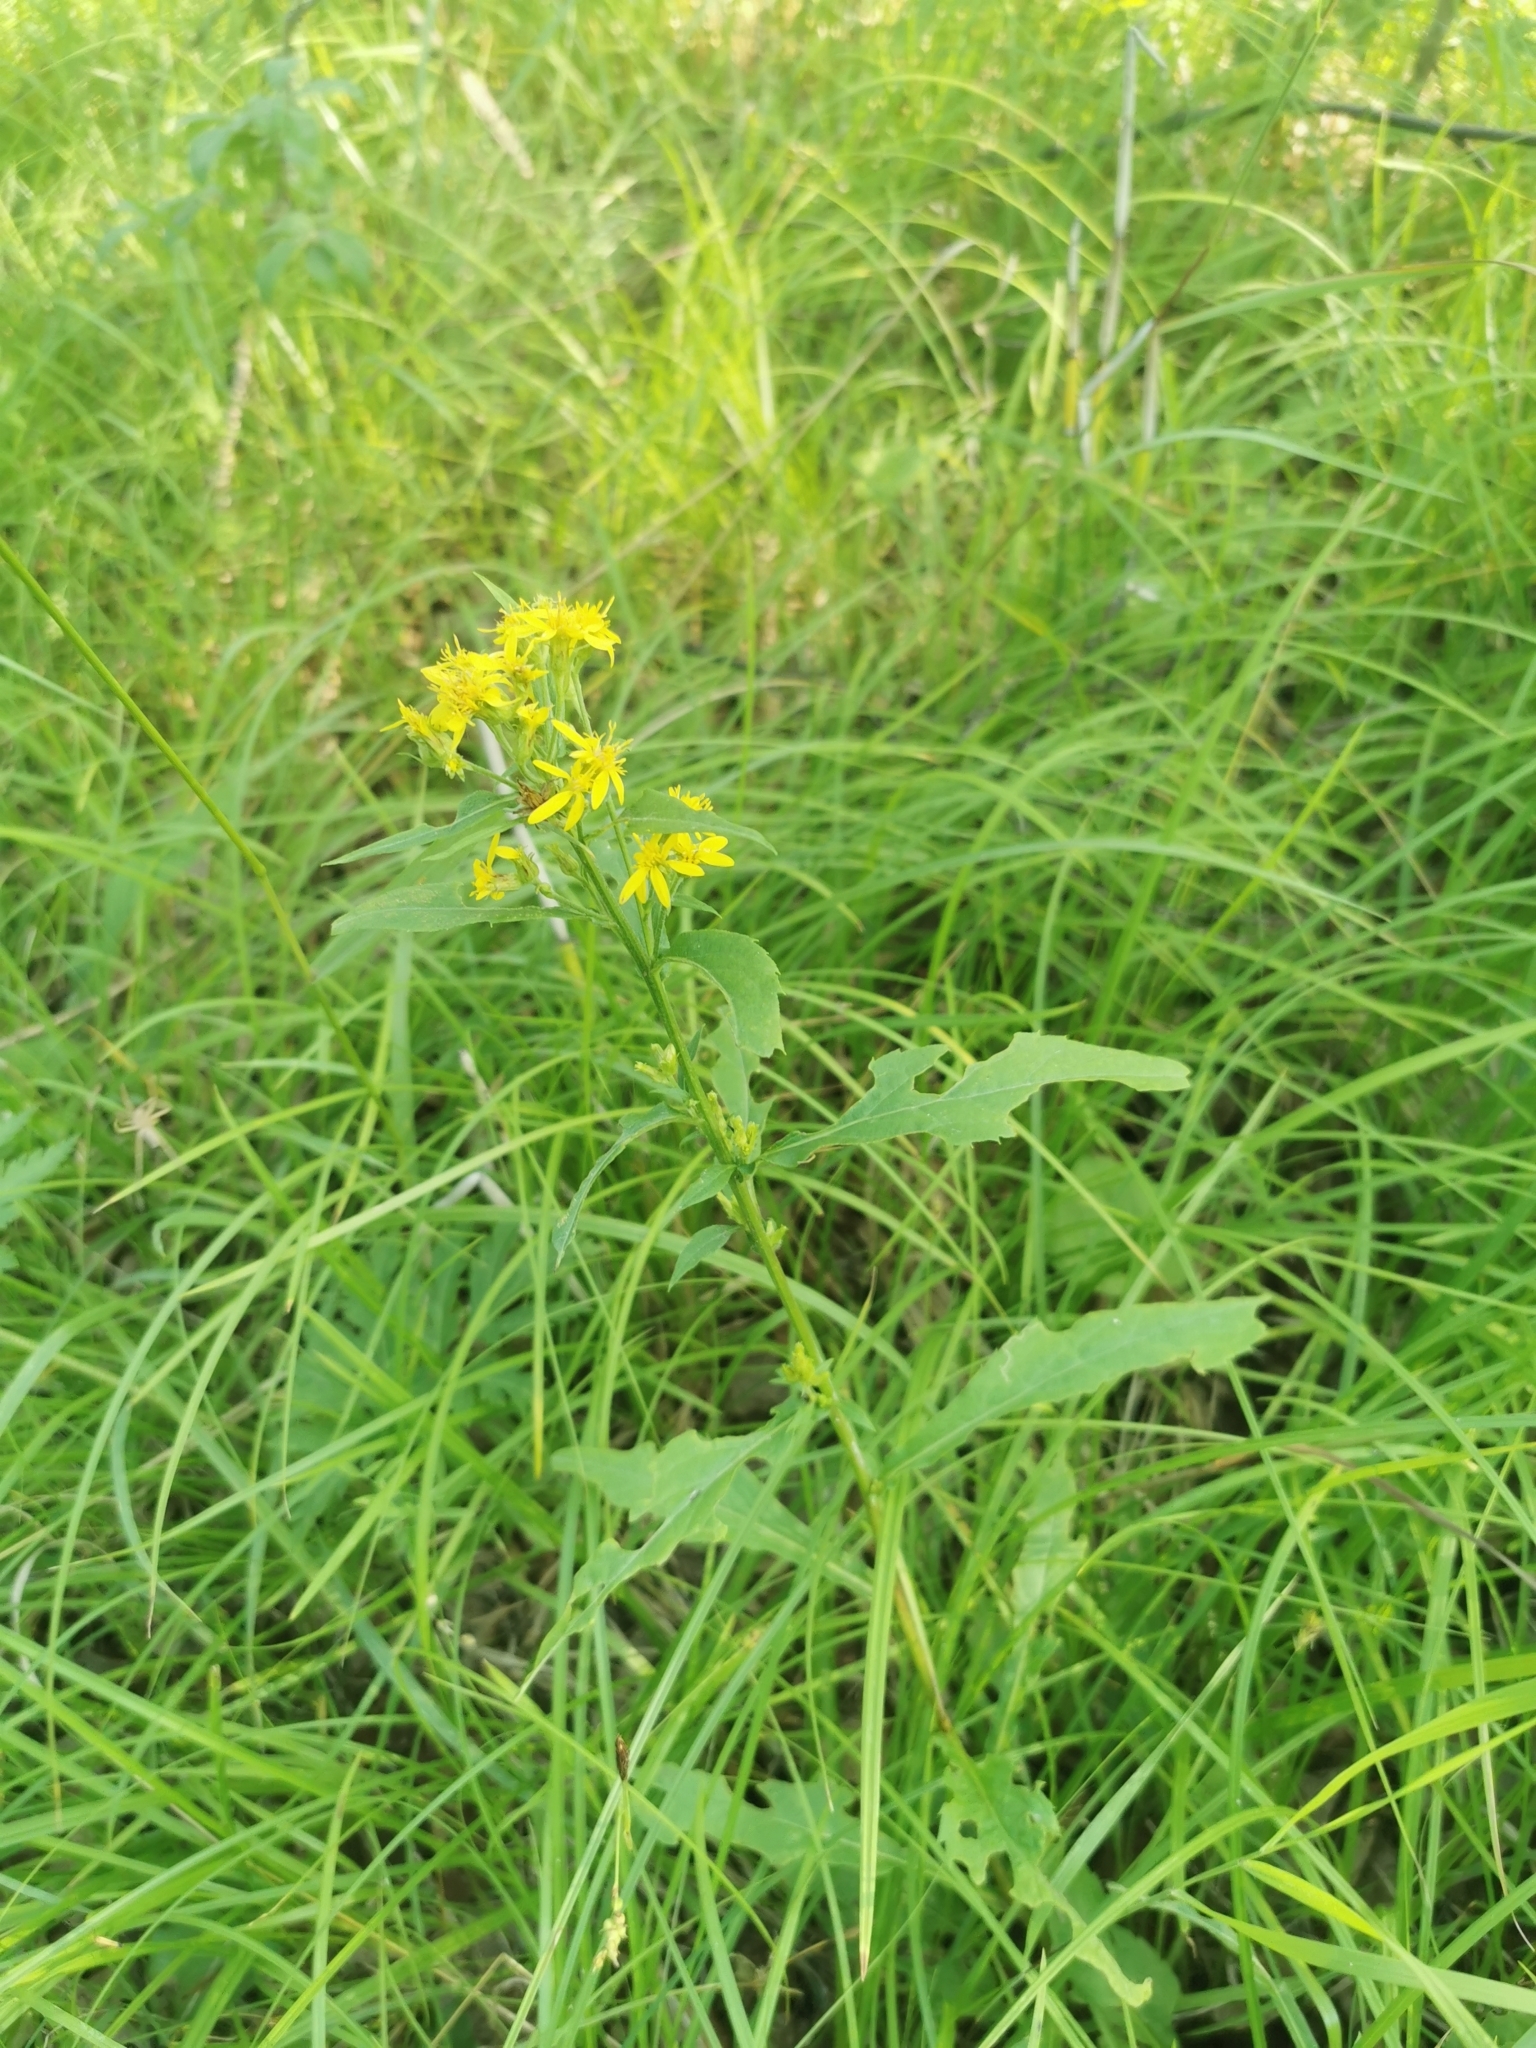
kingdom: Plantae
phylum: Tracheophyta
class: Magnoliopsida
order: Asterales
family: Asteraceae
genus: Solidago
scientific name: Solidago cuprea
